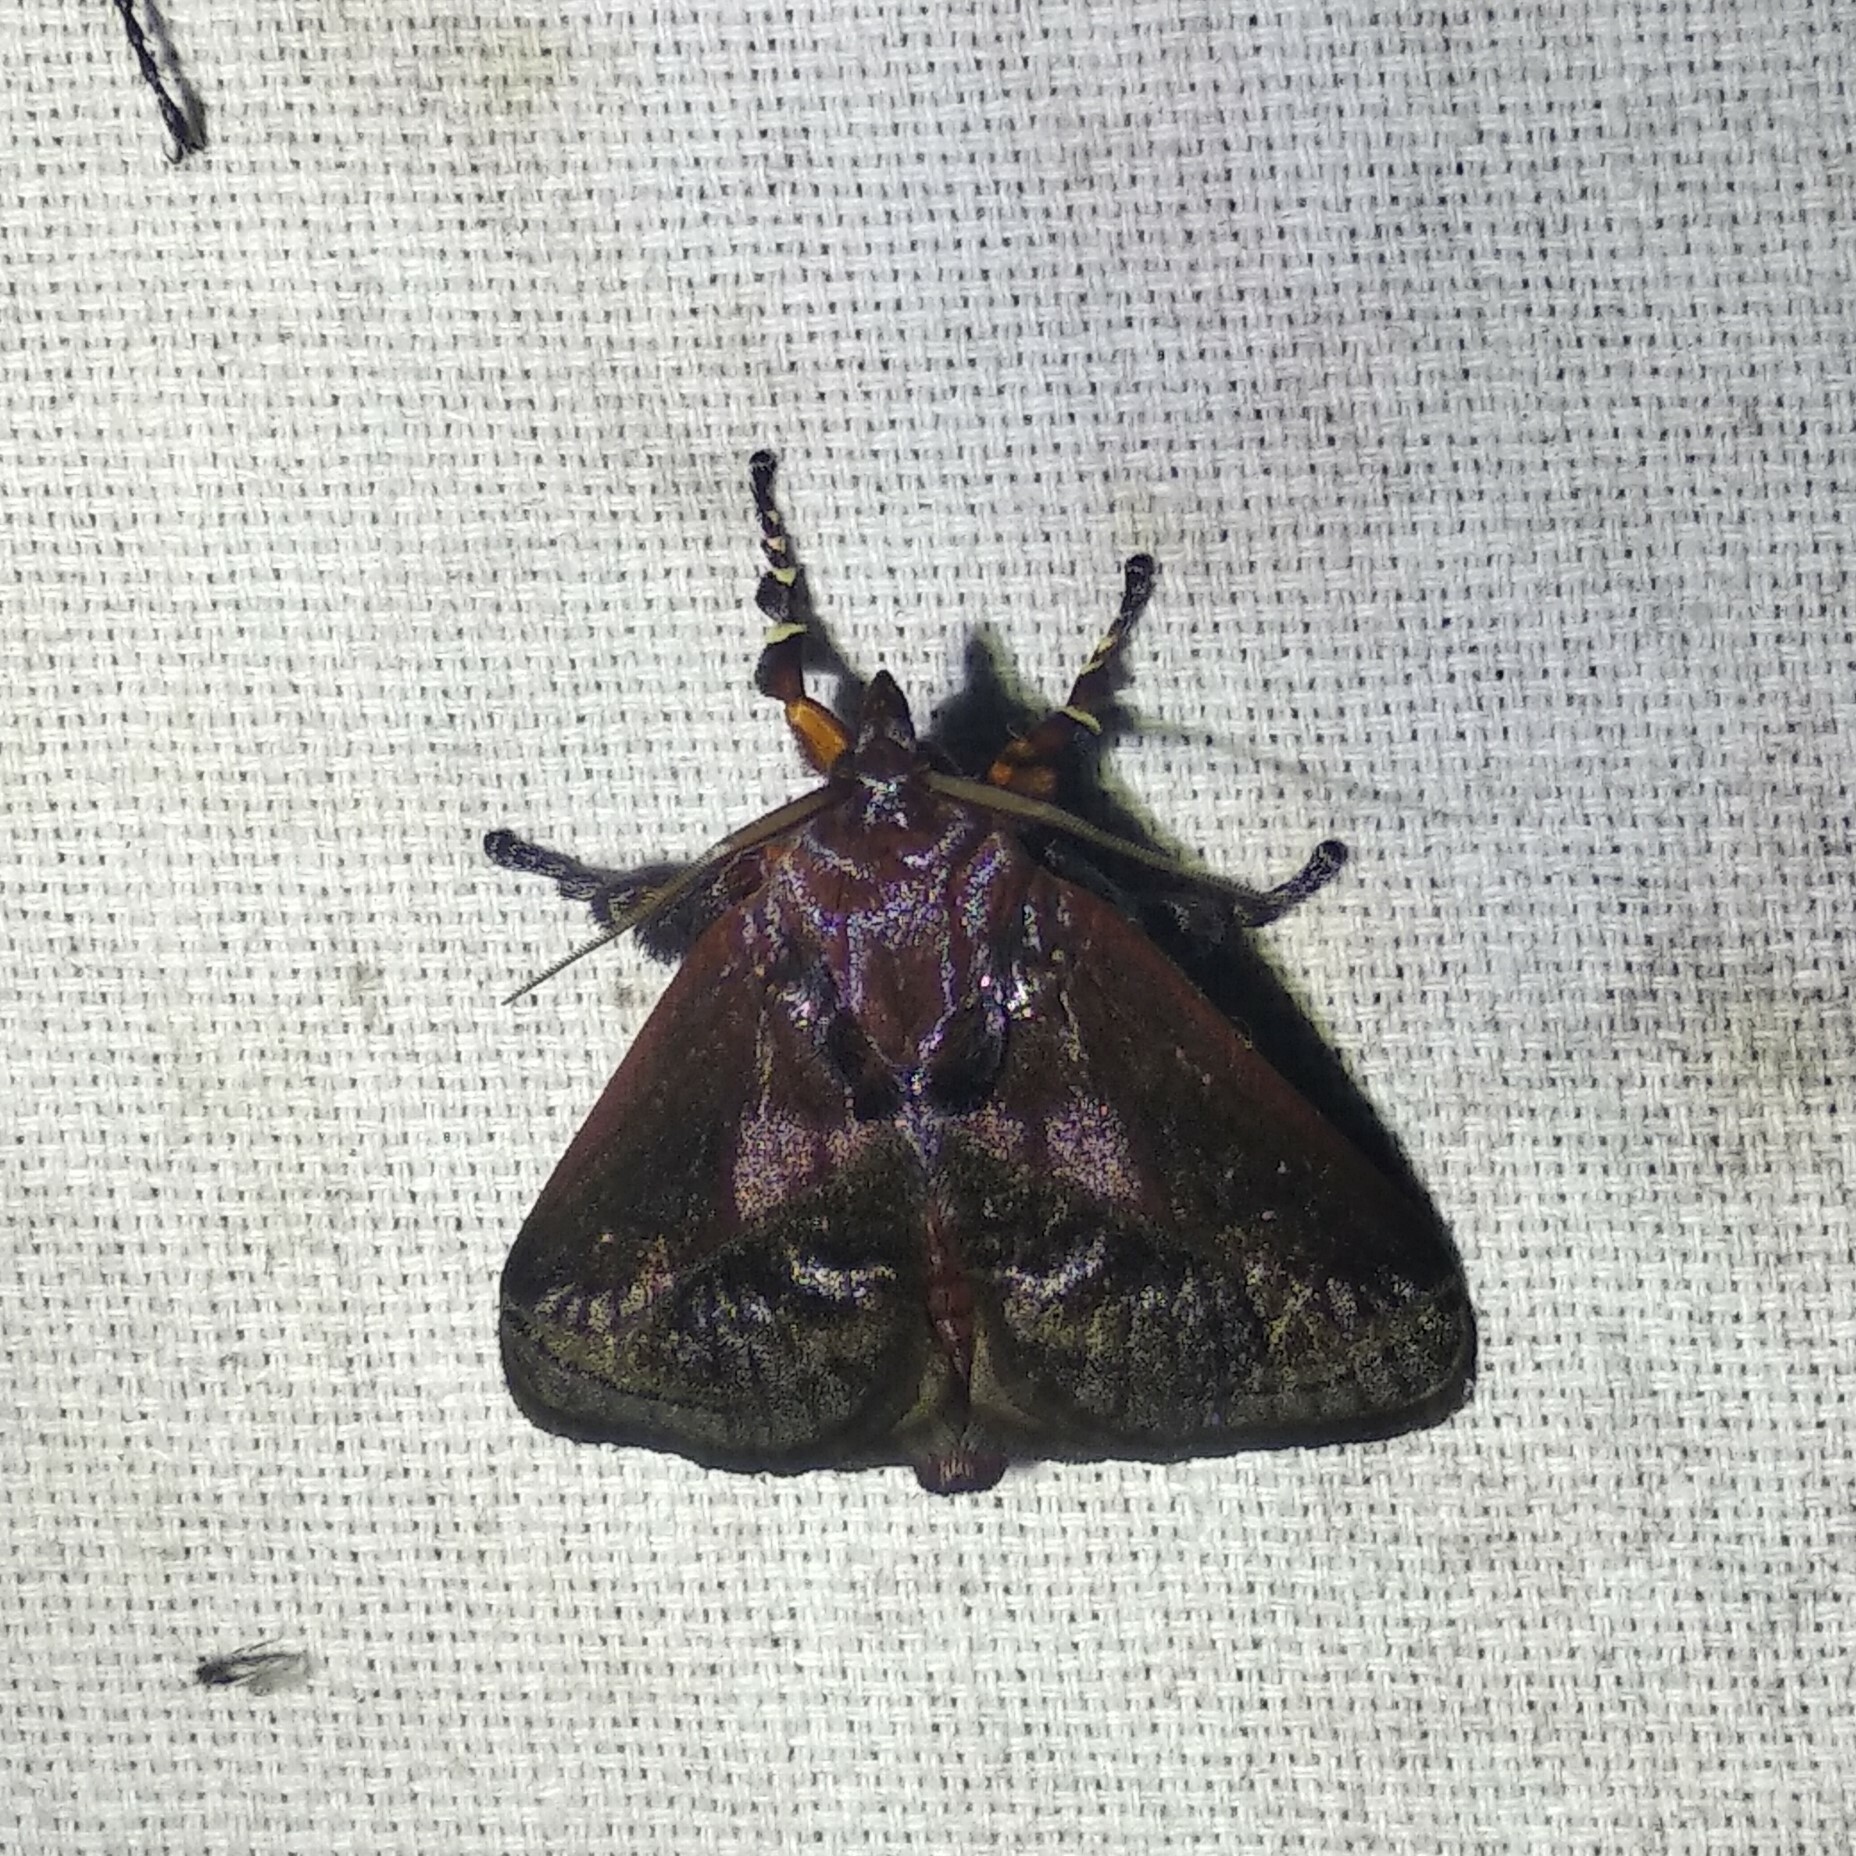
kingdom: Animalia
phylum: Arthropoda
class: Insecta
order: Lepidoptera
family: Limacodidae
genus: Phocoderma
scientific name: Phocoderma velutina
